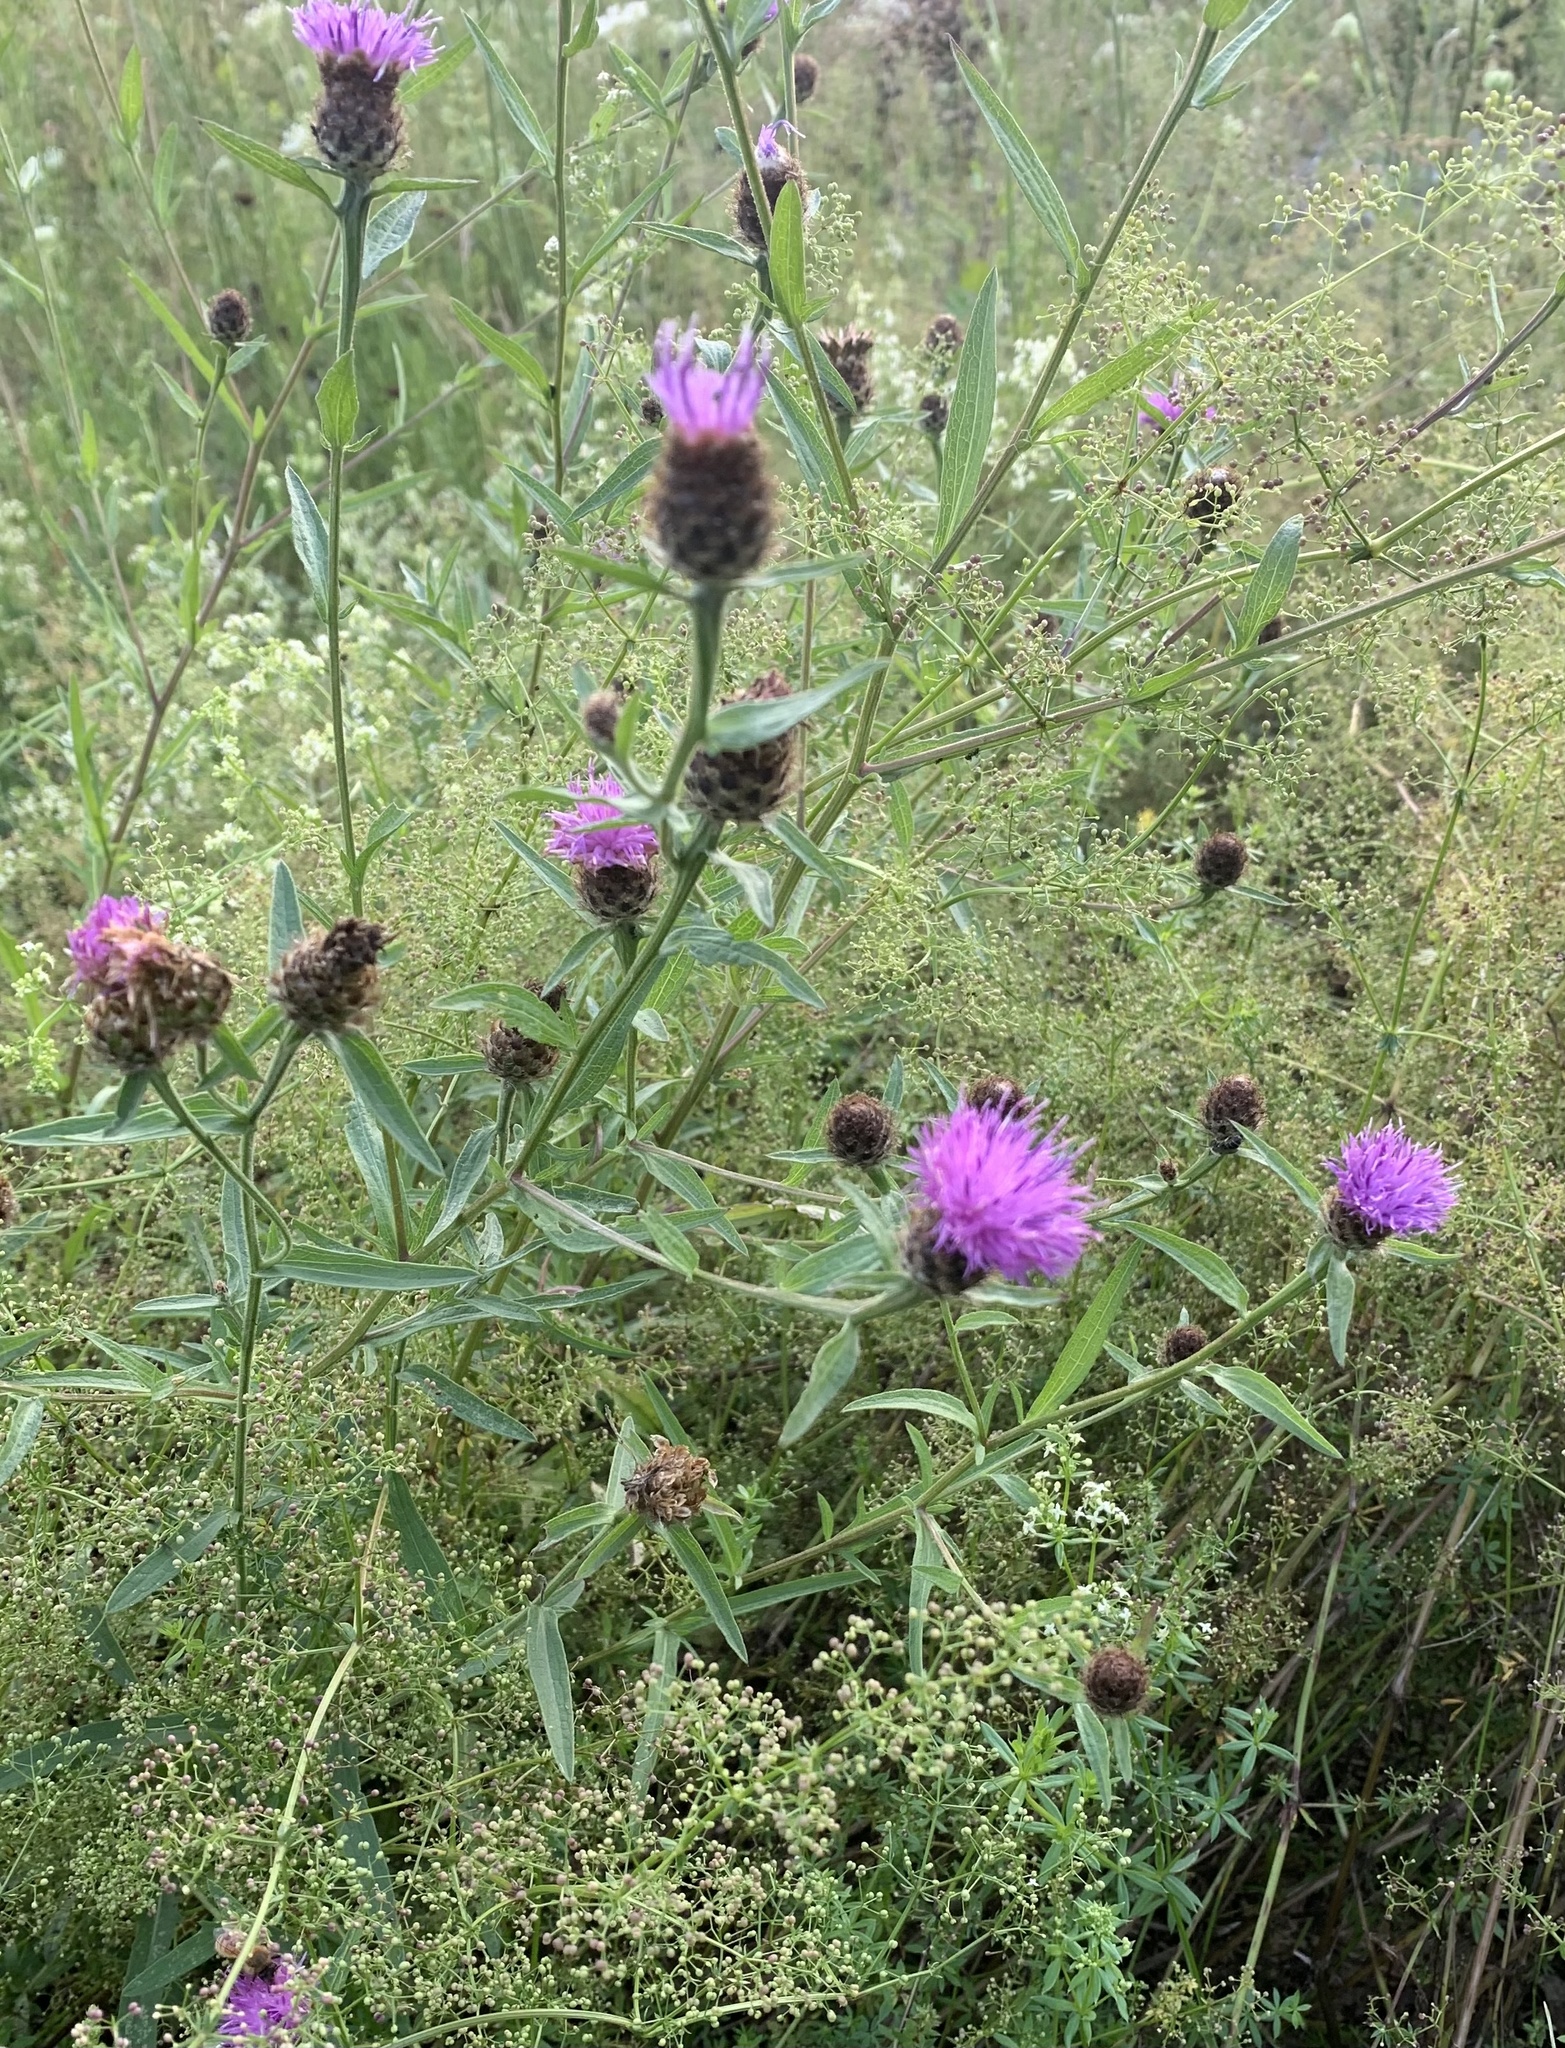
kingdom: Plantae
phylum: Tracheophyta
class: Magnoliopsida
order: Asterales
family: Asteraceae
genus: Centaurea
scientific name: Centaurea nigra
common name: Lesser knapweed
